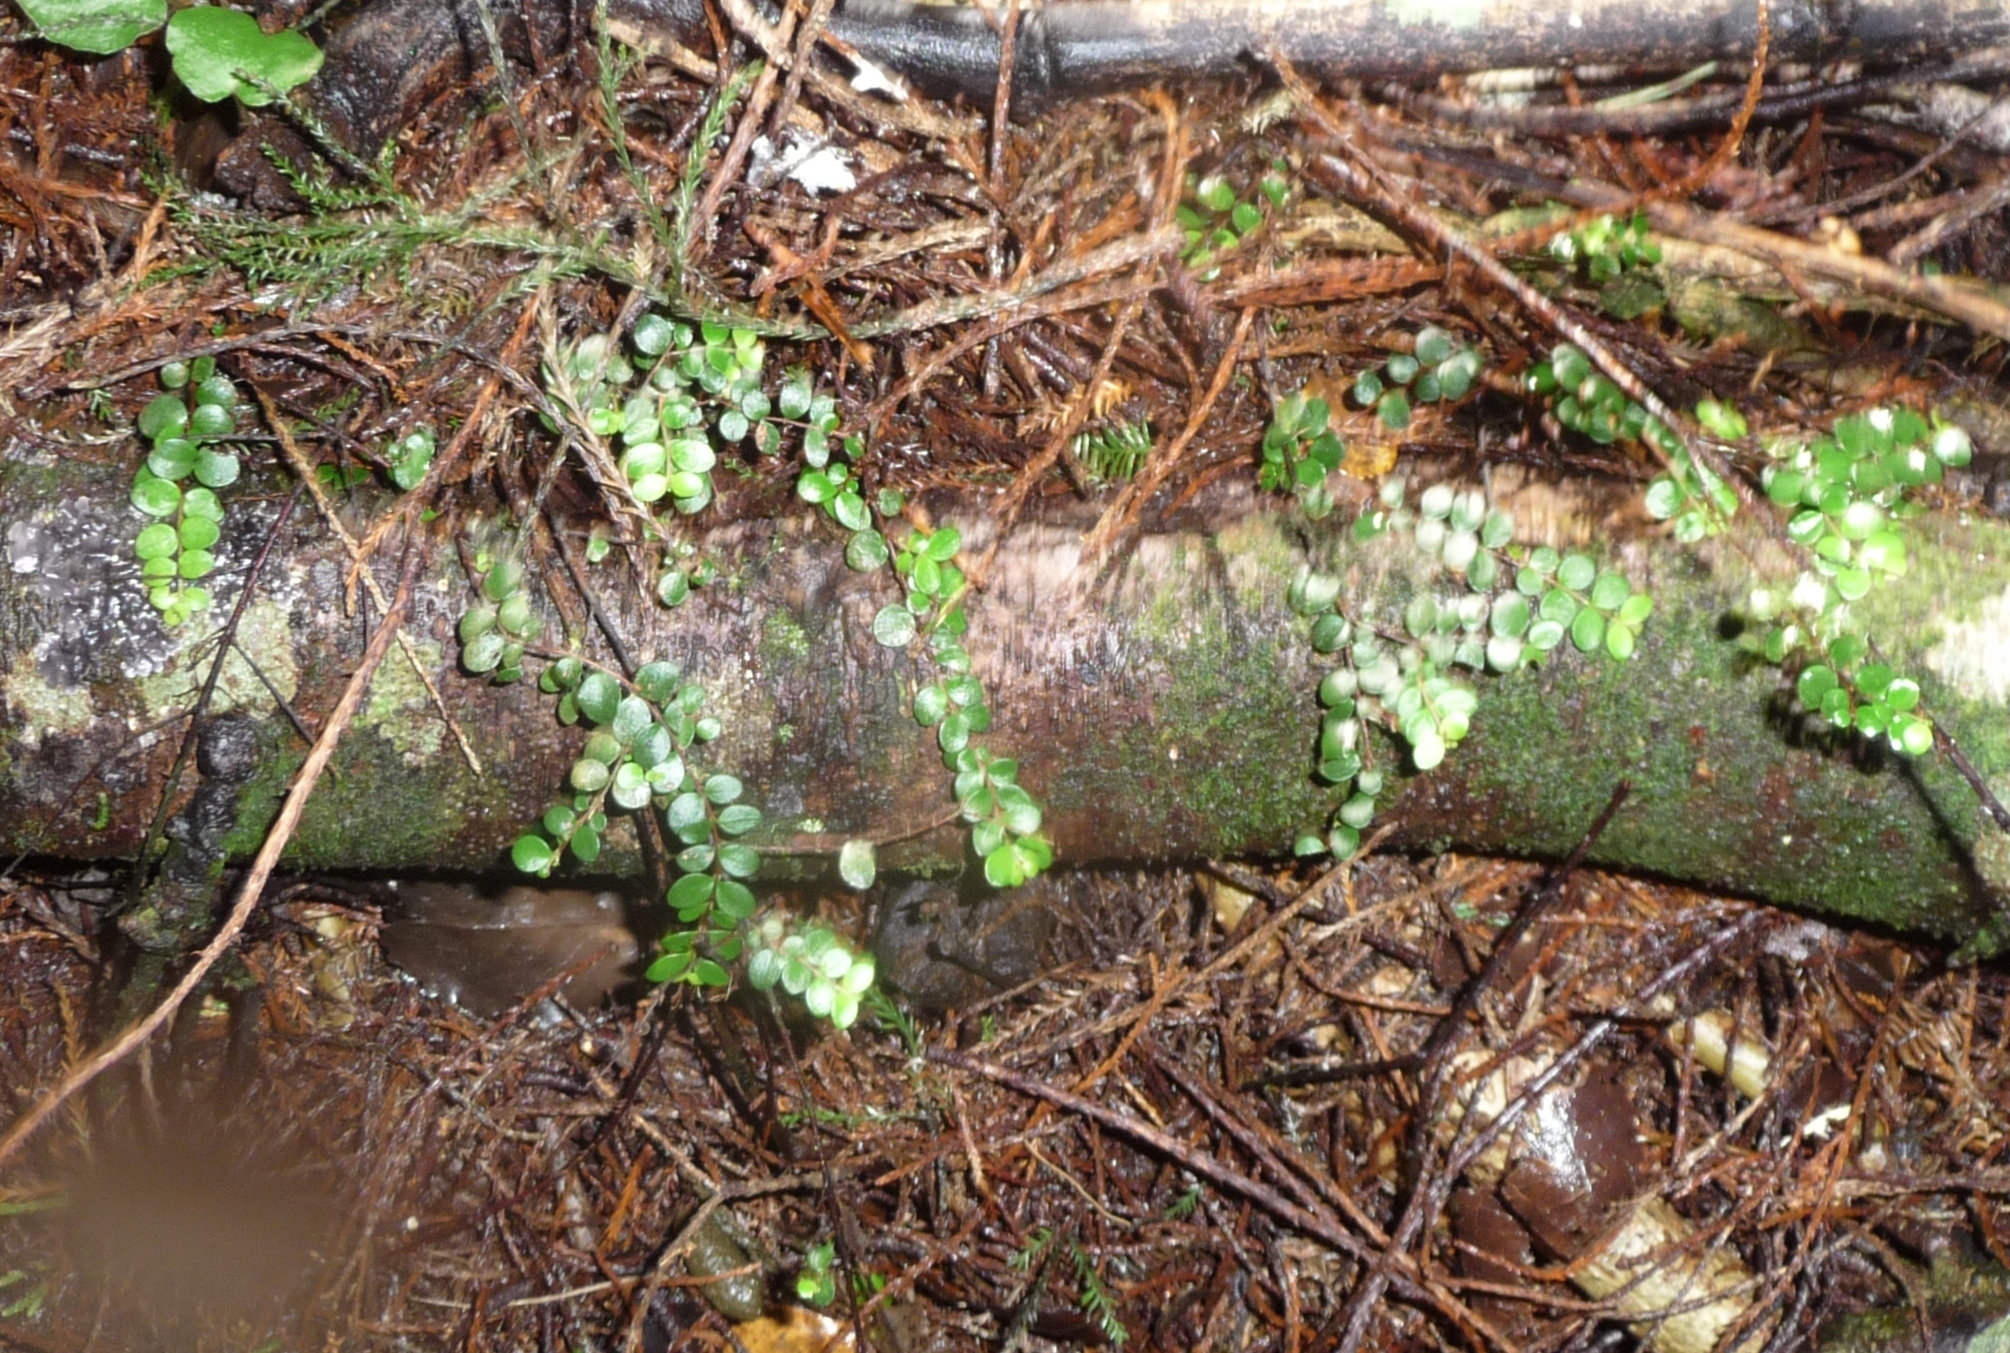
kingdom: Plantae
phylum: Tracheophyta
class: Magnoliopsida
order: Myrtales
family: Myrtaceae
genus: Metrosideros
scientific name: Metrosideros perforata
